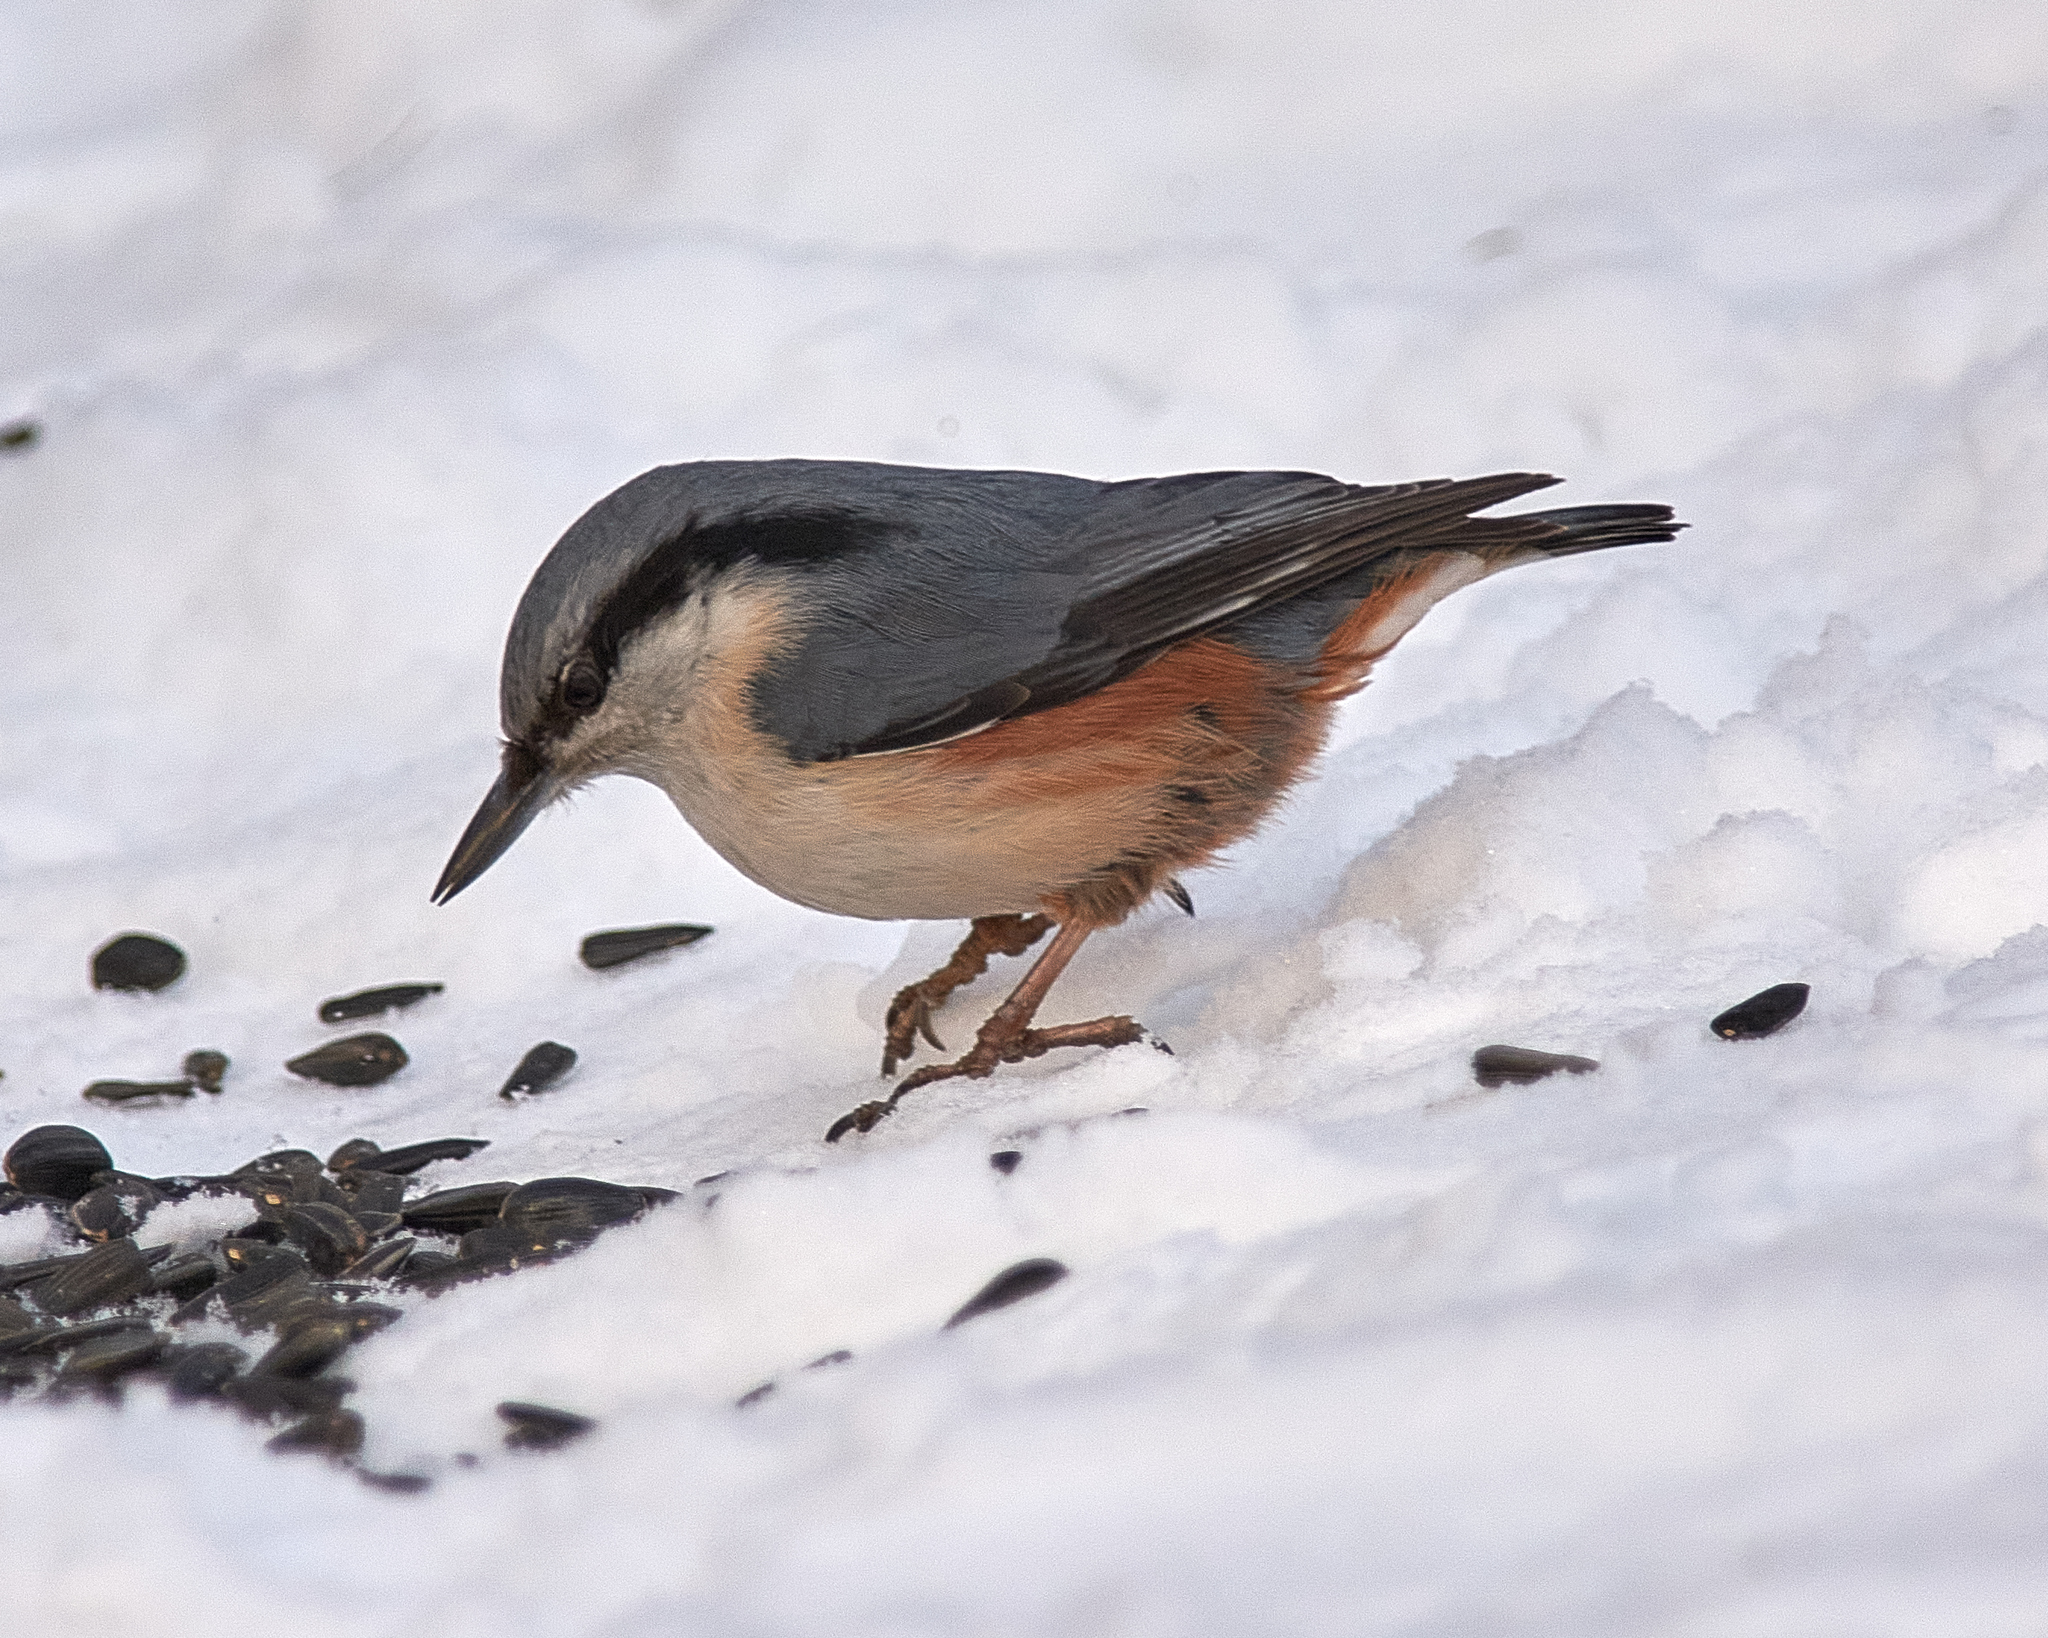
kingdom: Animalia
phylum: Chordata
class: Aves
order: Passeriformes
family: Sittidae
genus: Sitta
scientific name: Sitta europaea
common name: Eurasian nuthatch
